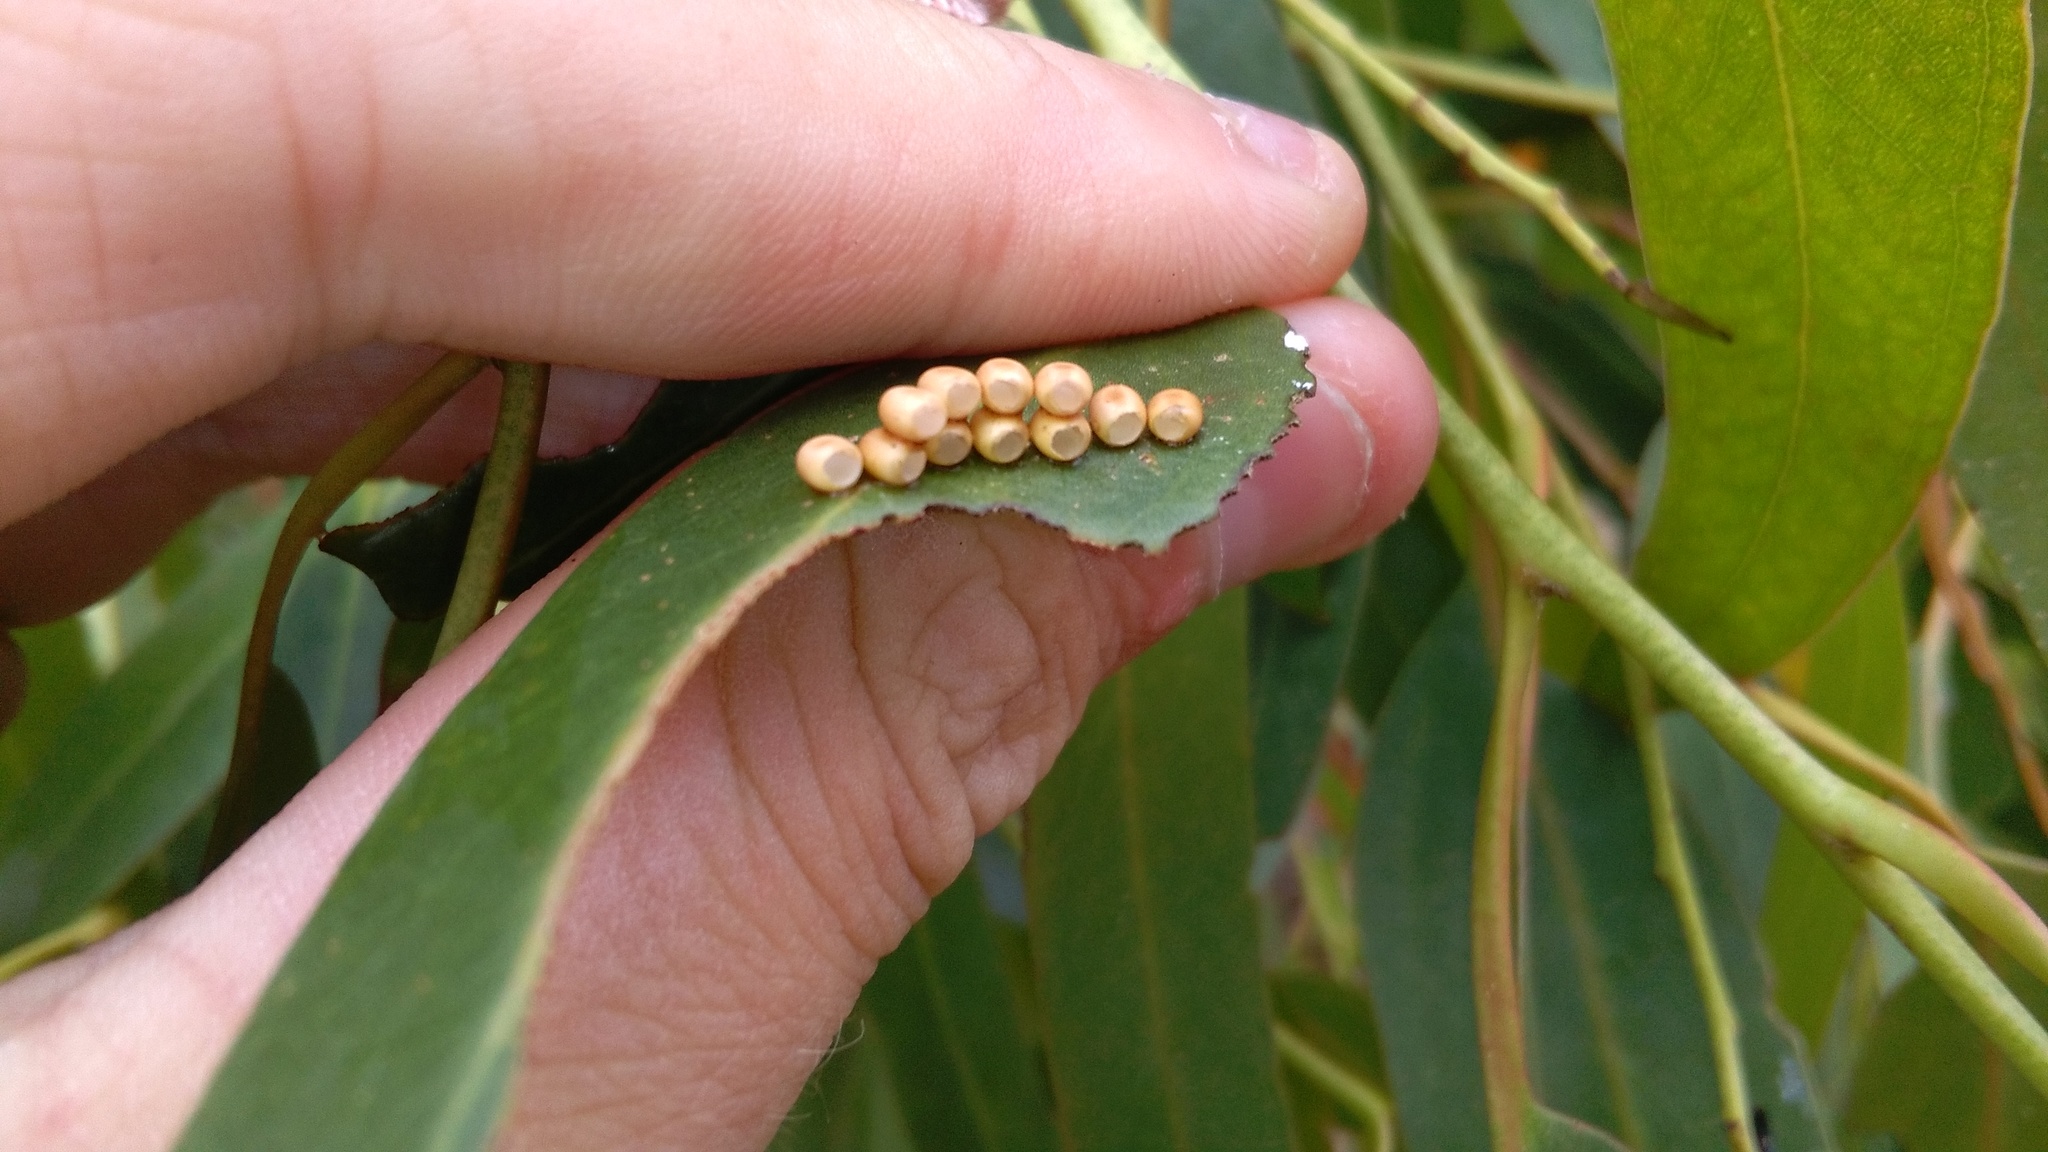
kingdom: Animalia
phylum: Arthropoda
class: Insecta
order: Lepidoptera
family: Saturniidae
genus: Opodiphthera
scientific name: Opodiphthera
